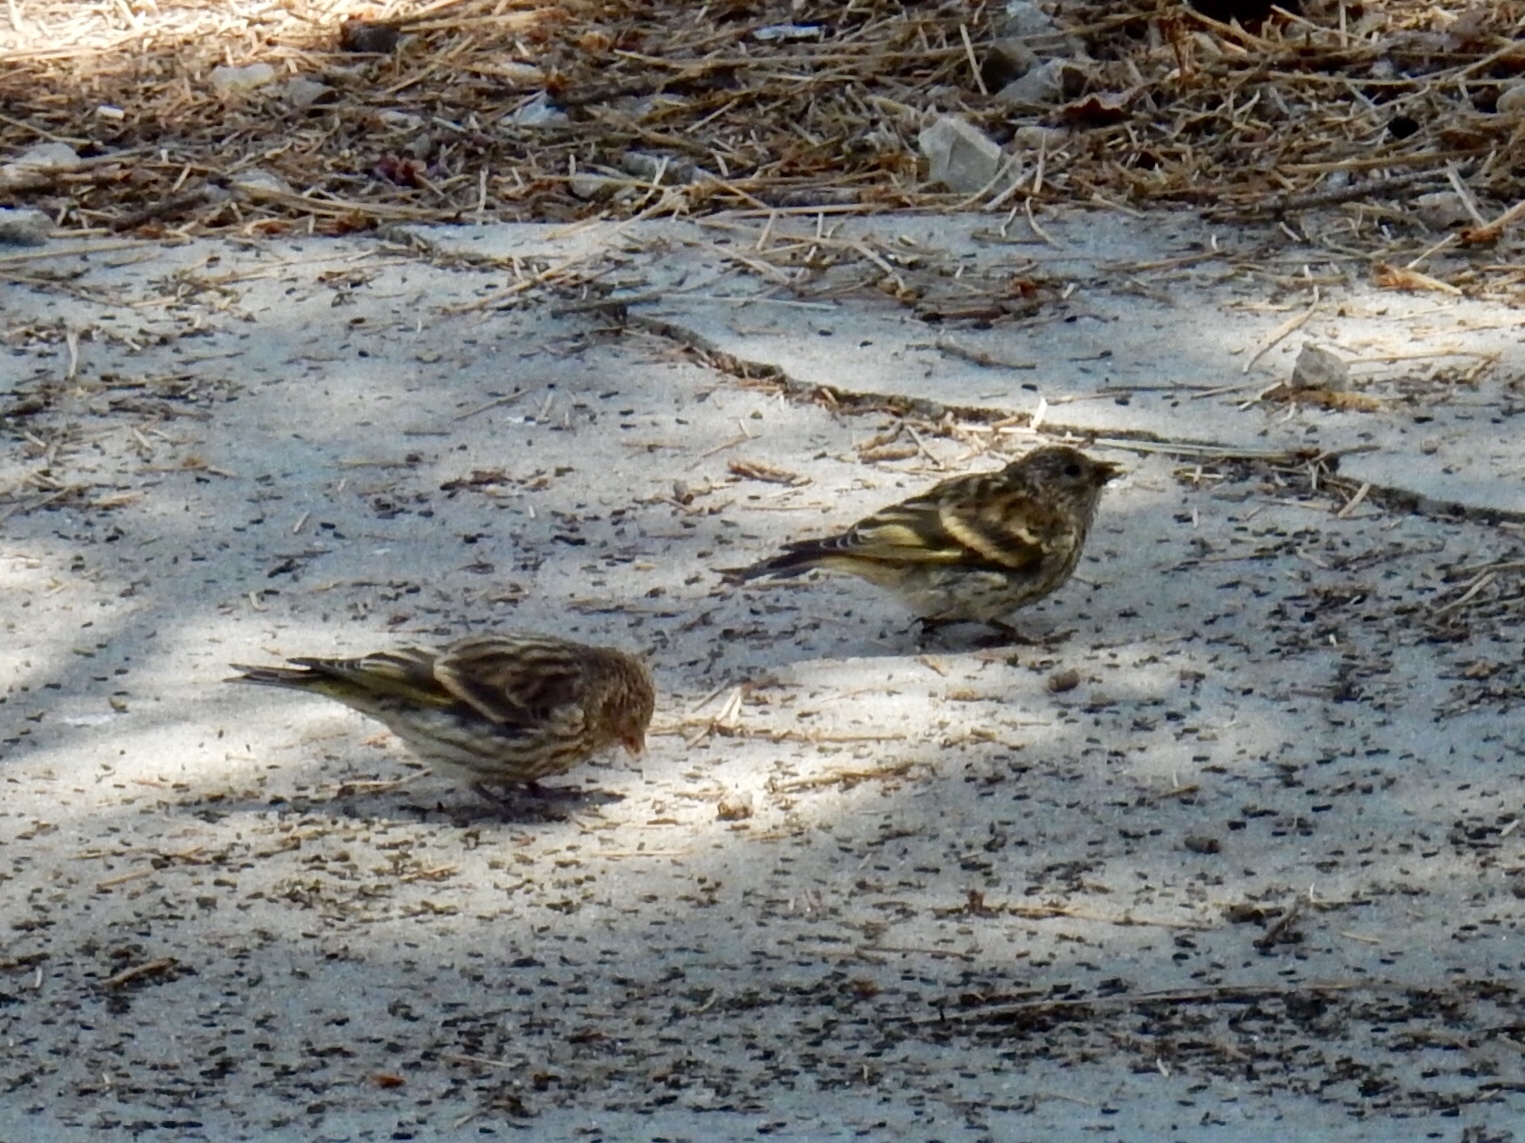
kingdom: Animalia
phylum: Chordata
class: Aves
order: Passeriformes
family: Fringillidae
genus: Spinus
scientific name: Spinus pinus
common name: Pine siskin
